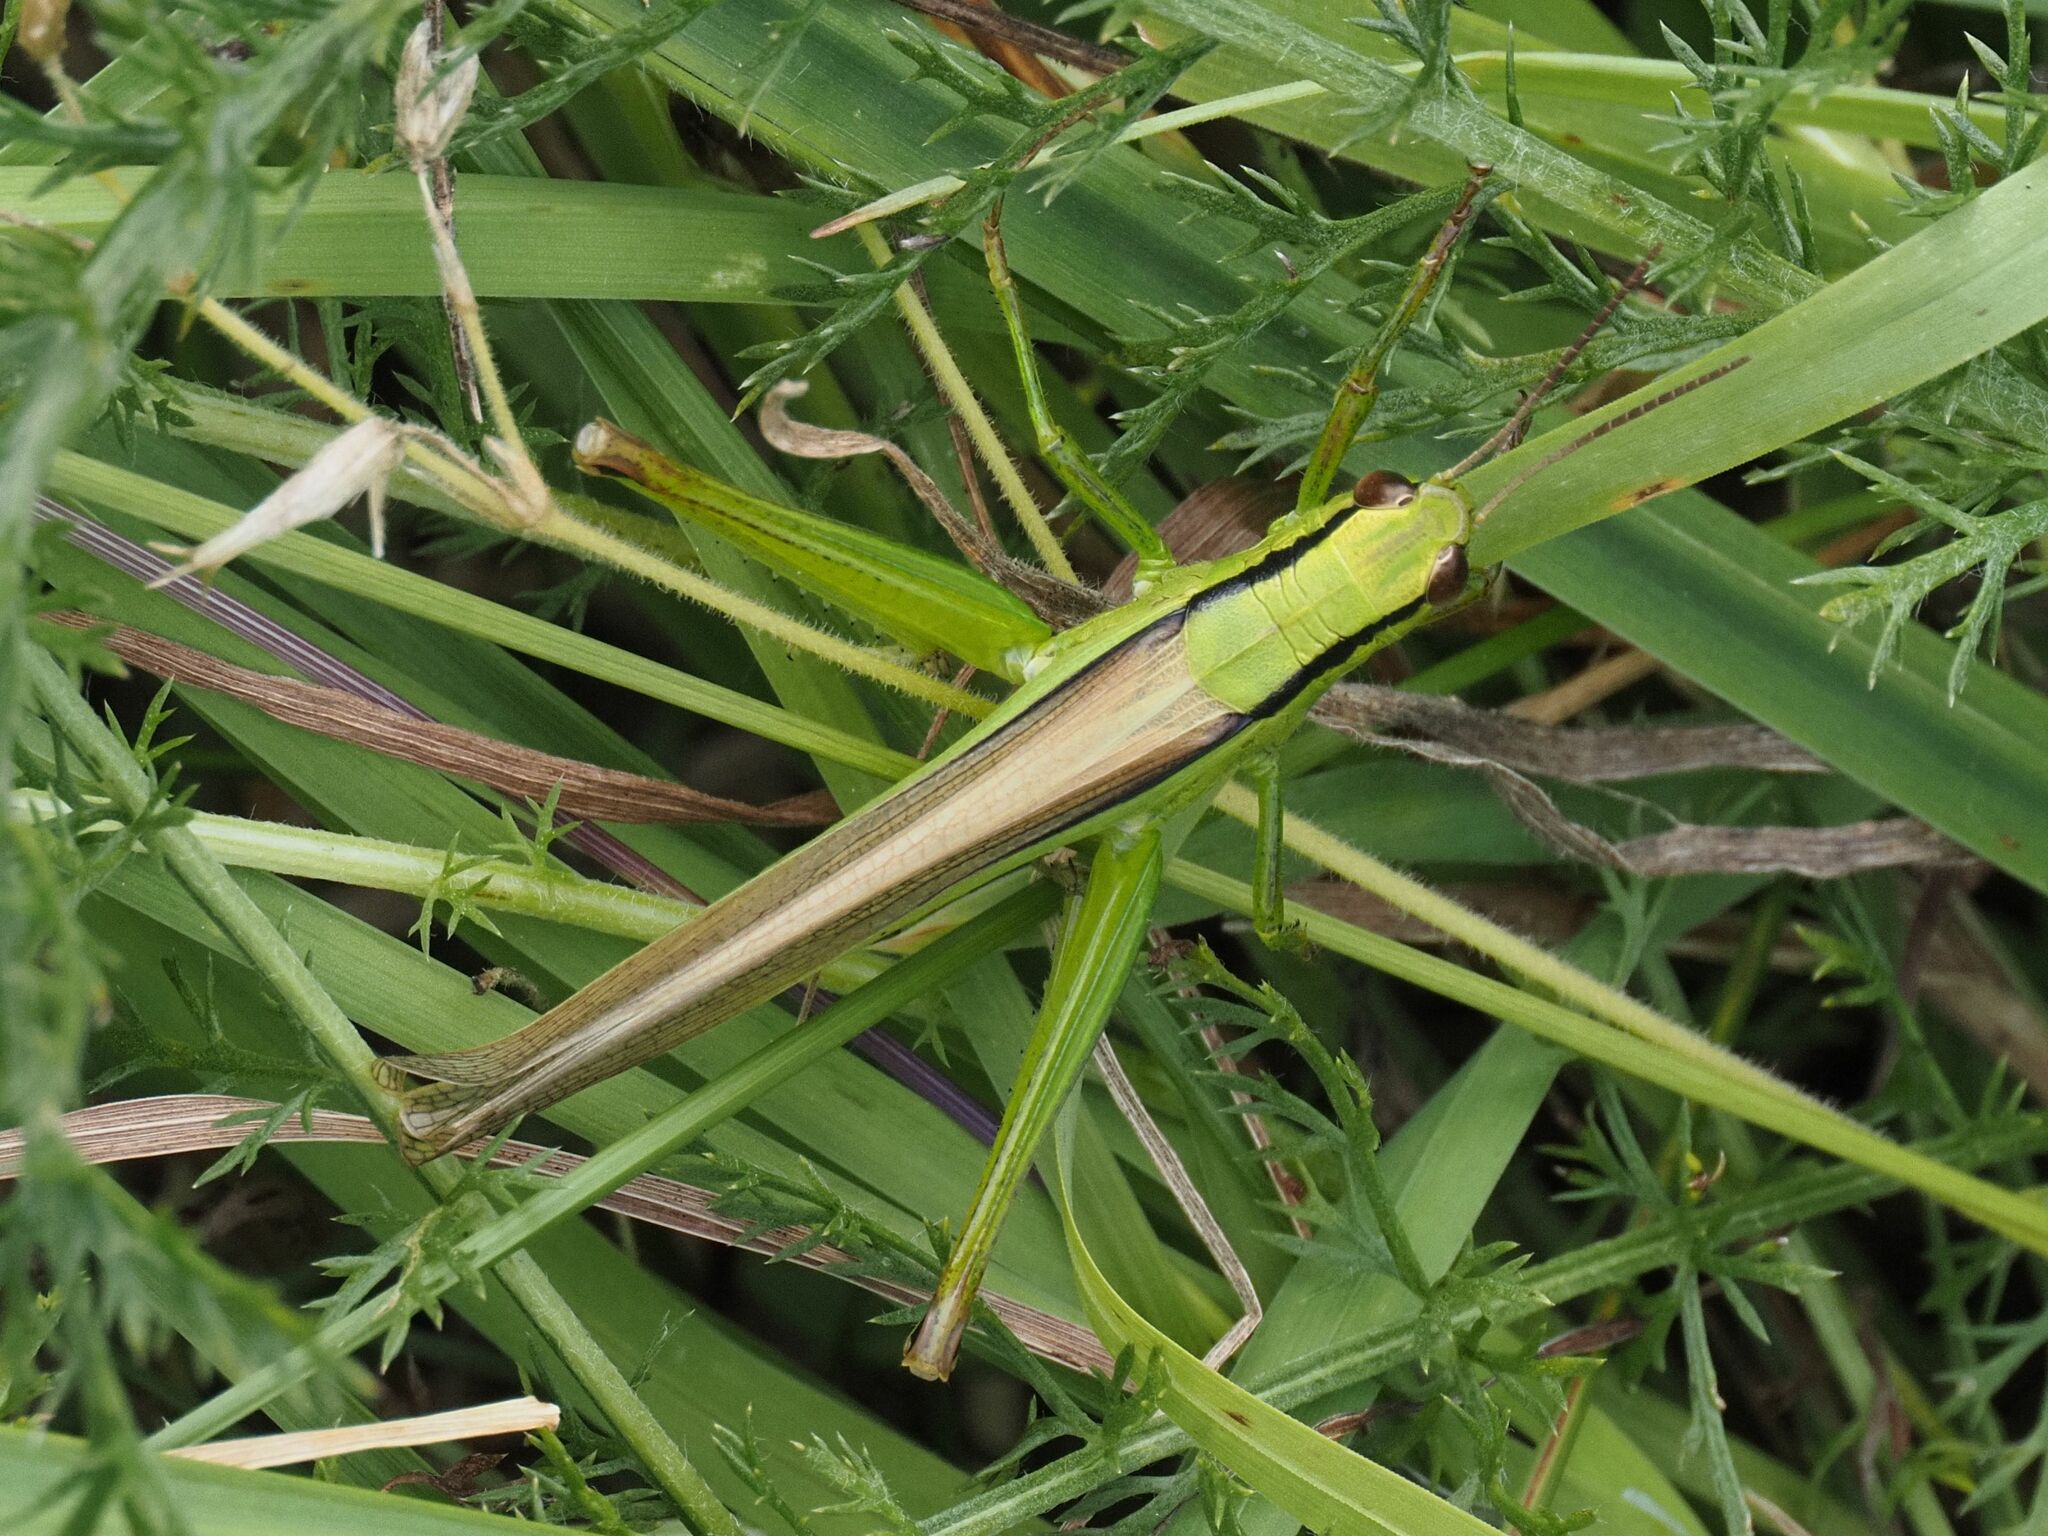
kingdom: Animalia
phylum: Arthropoda
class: Insecta
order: Orthoptera
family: Acrididae
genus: Mecostethus
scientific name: Mecostethus parapleurus
